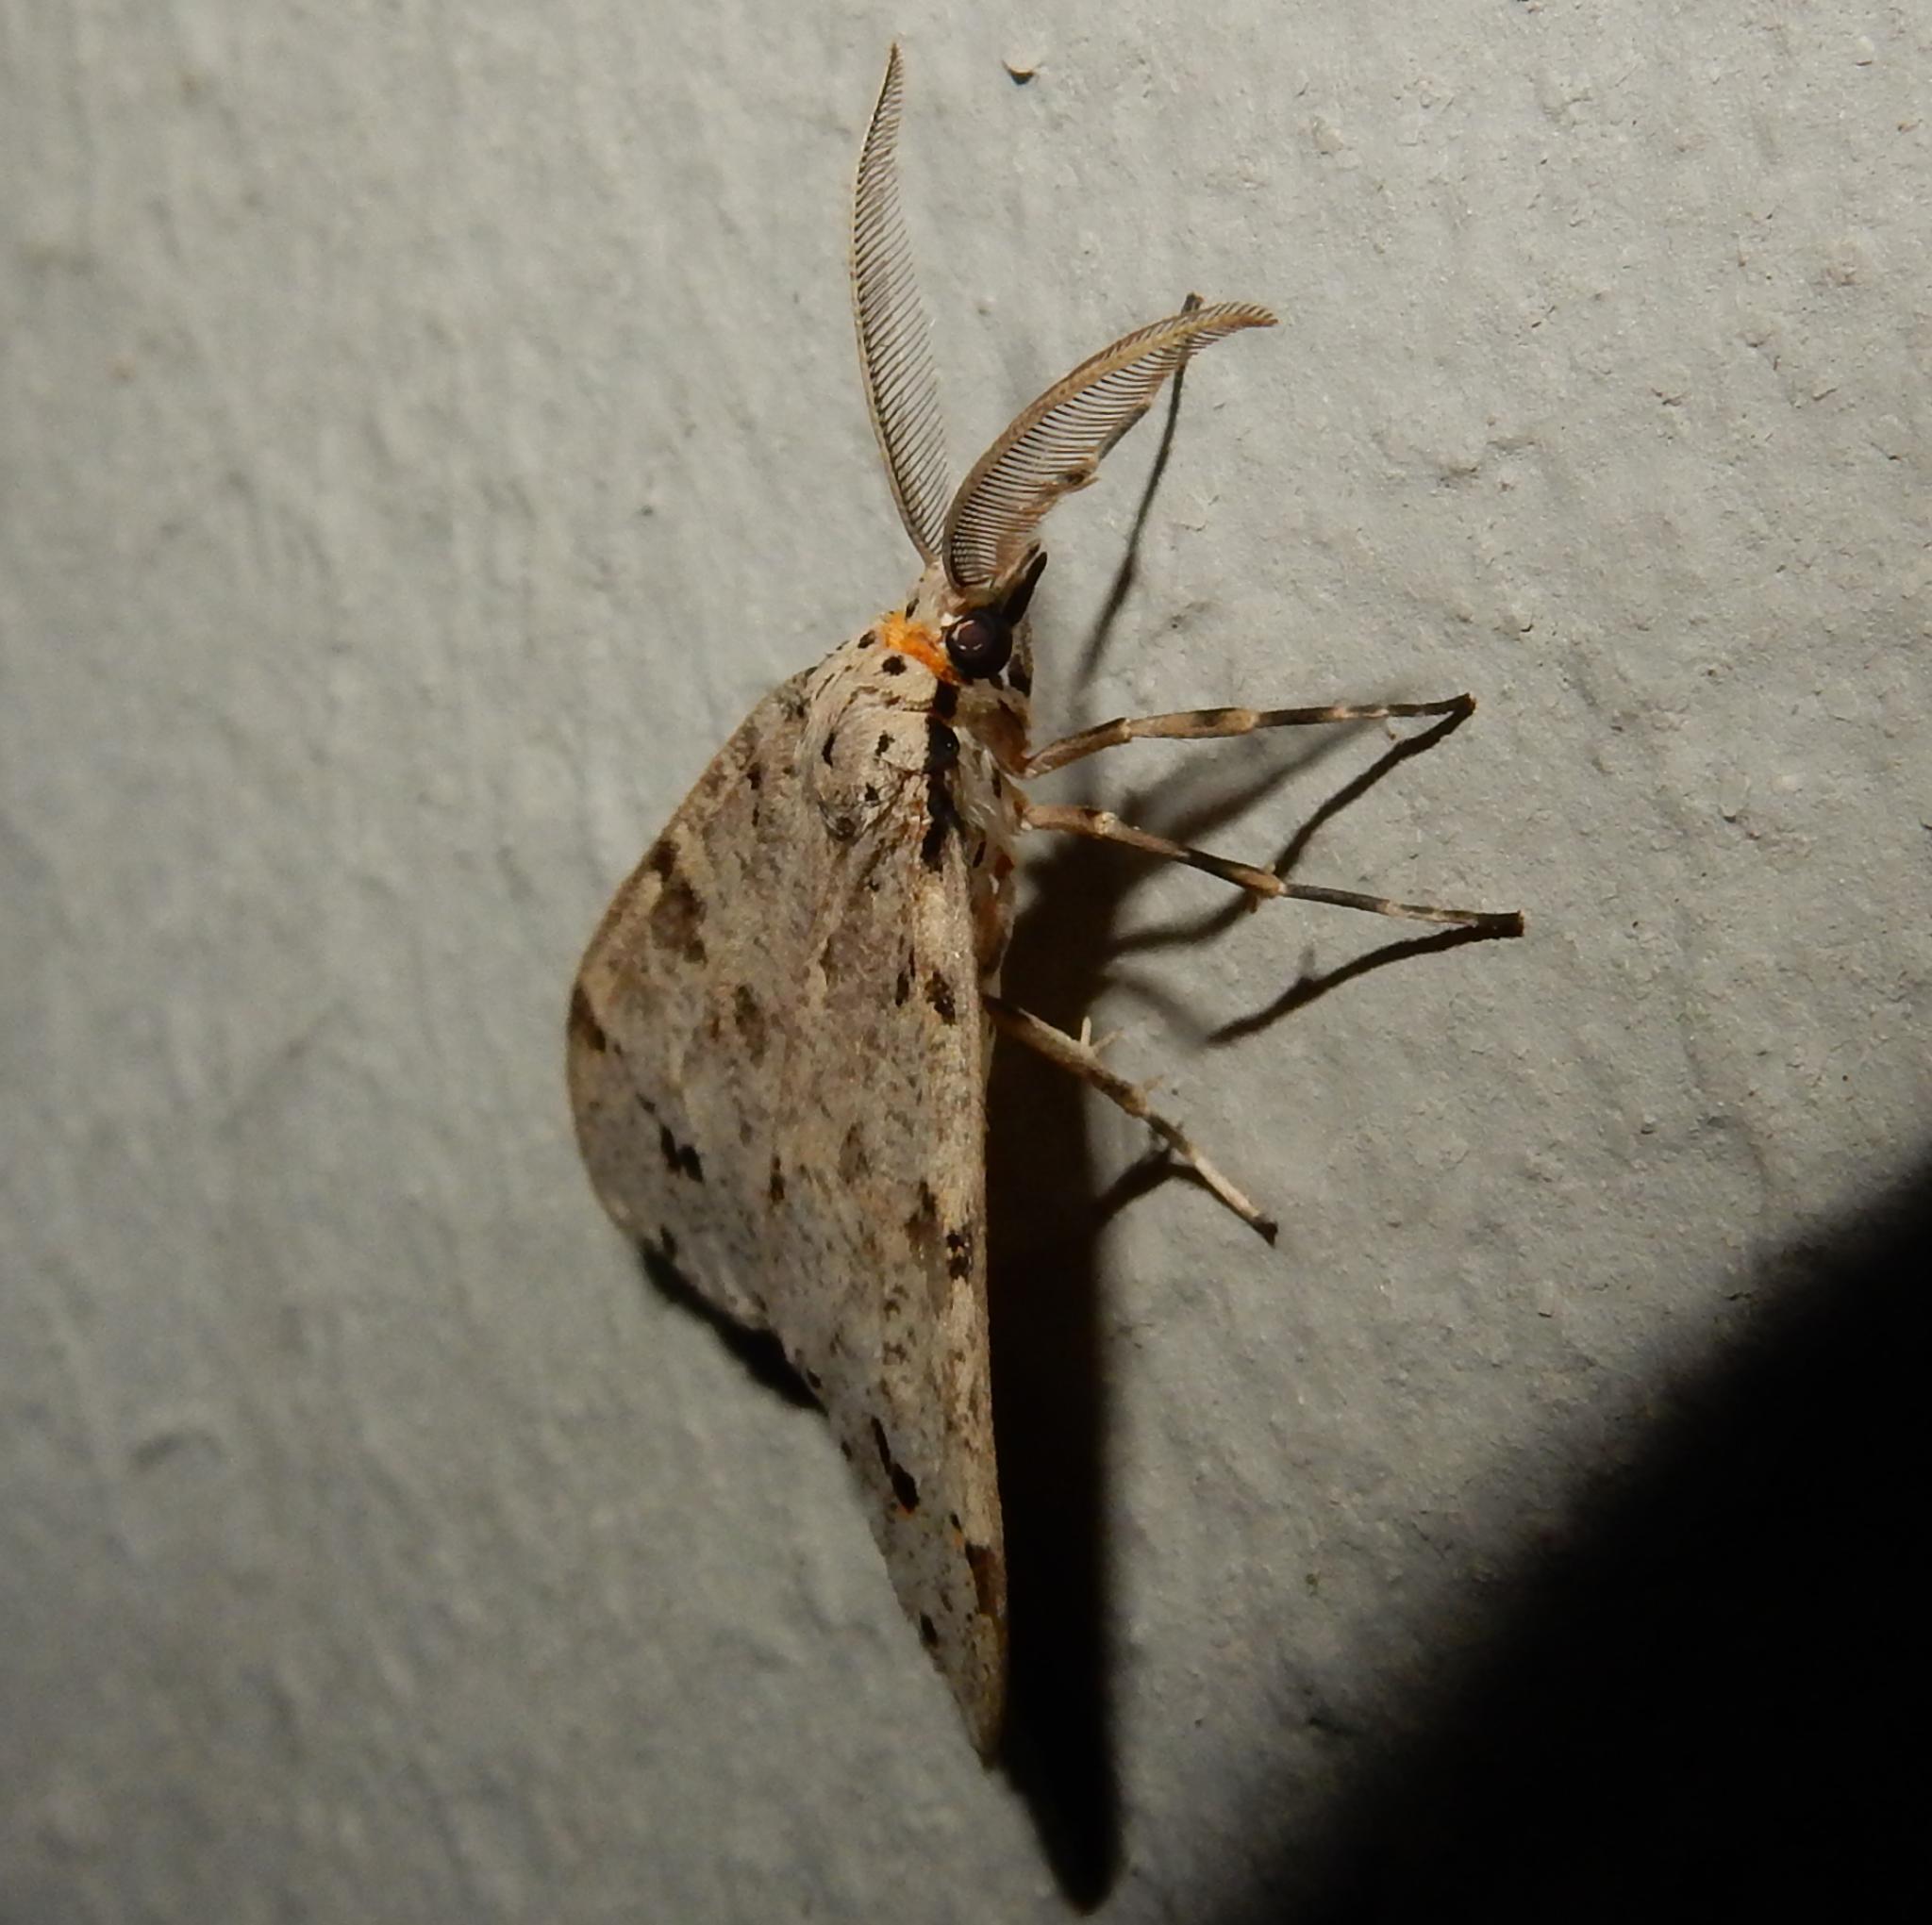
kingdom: Animalia
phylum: Arthropoda
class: Insecta
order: Lepidoptera
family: Erebidae
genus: Galtara
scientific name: Galtara pulverata
